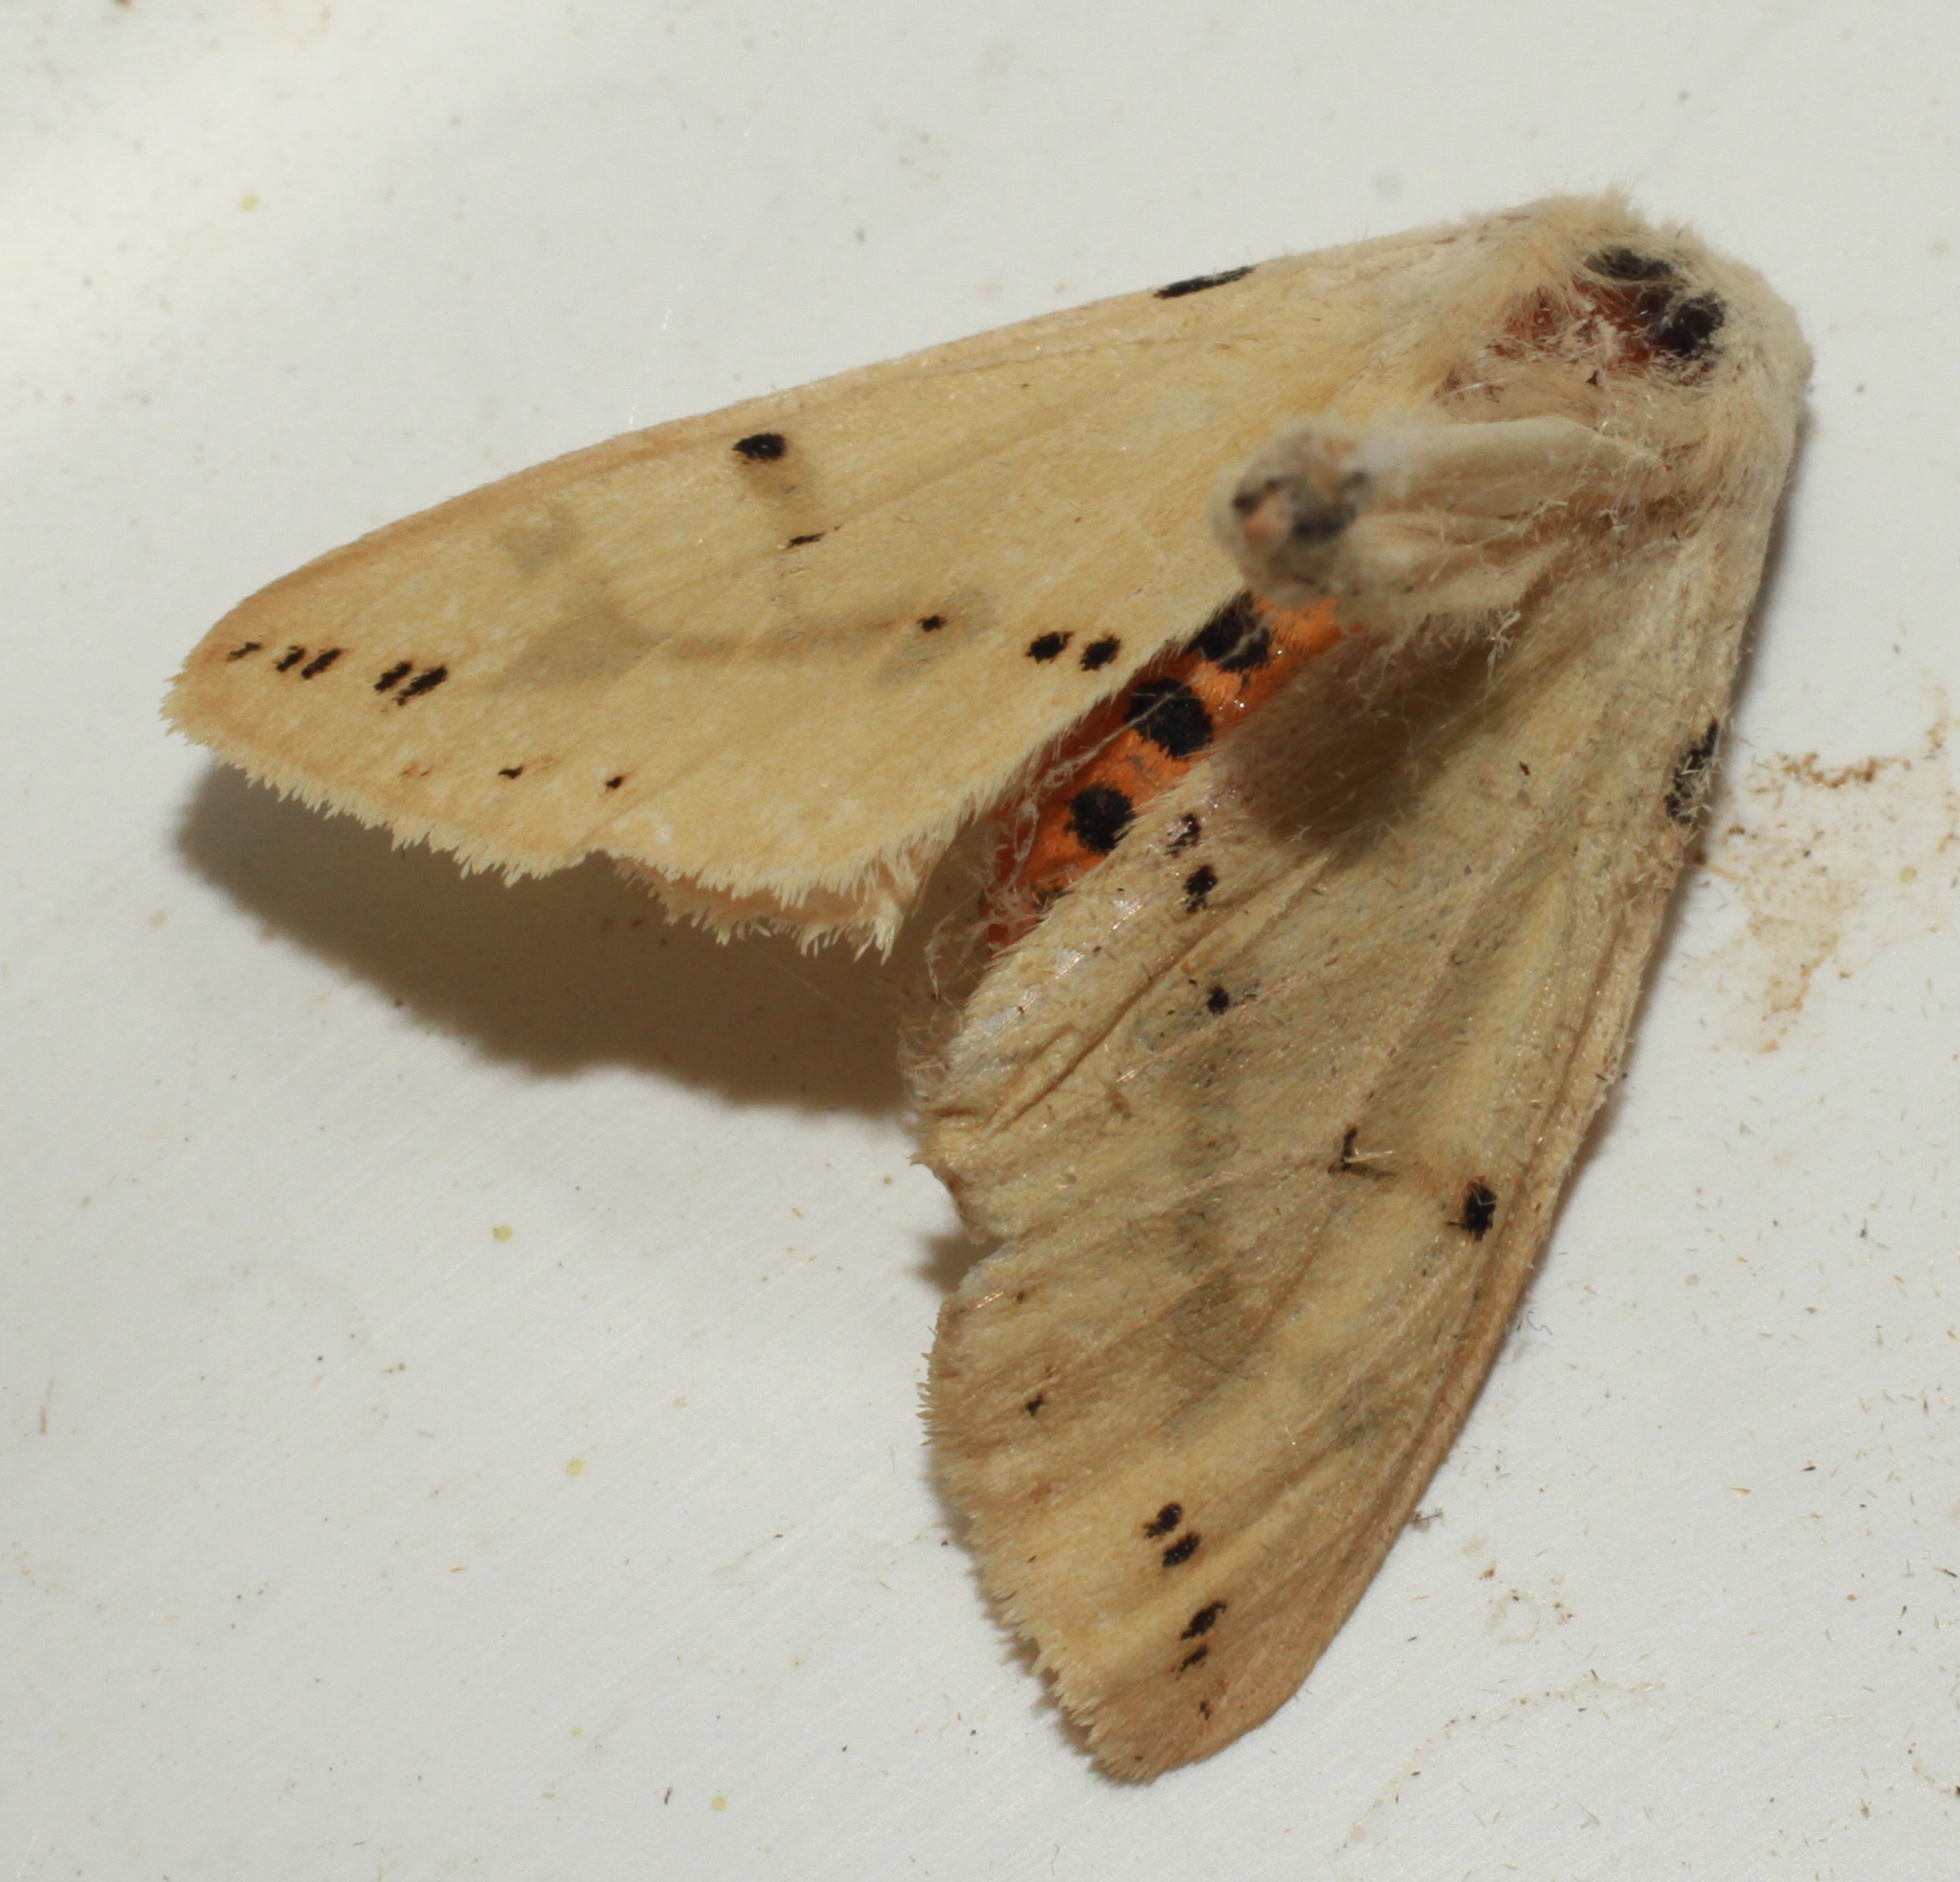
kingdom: Animalia
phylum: Arthropoda
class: Insecta
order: Lepidoptera
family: Erebidae
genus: Spilarctia
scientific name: Spilarctia lutea
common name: Buff ermine
